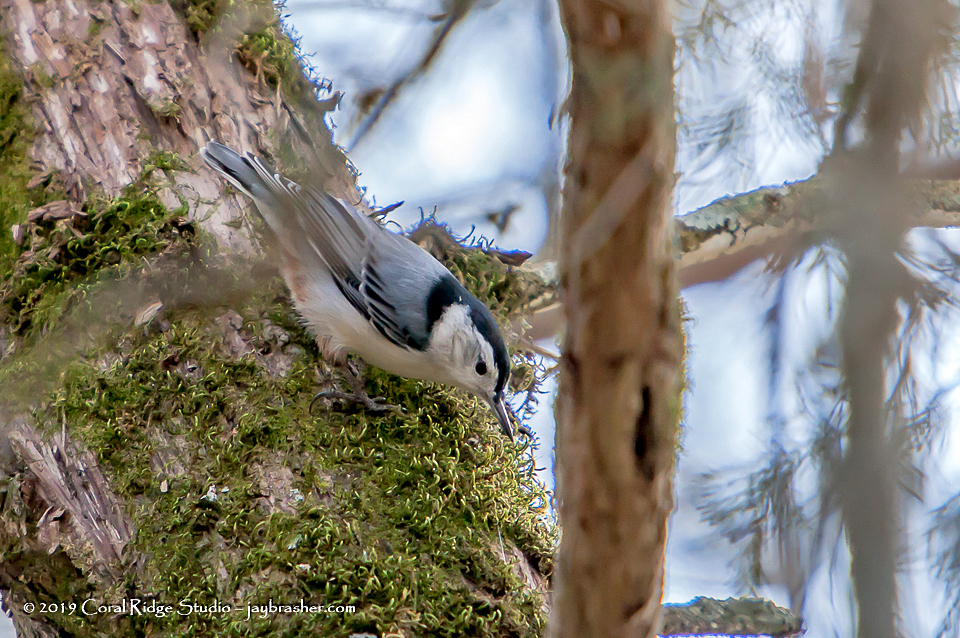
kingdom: Animalia
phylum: Chordata
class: Aves
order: Passeriformes
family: Sittidae
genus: Sitta
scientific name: Sitta carolinensis
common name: White-breasted nuthatch
